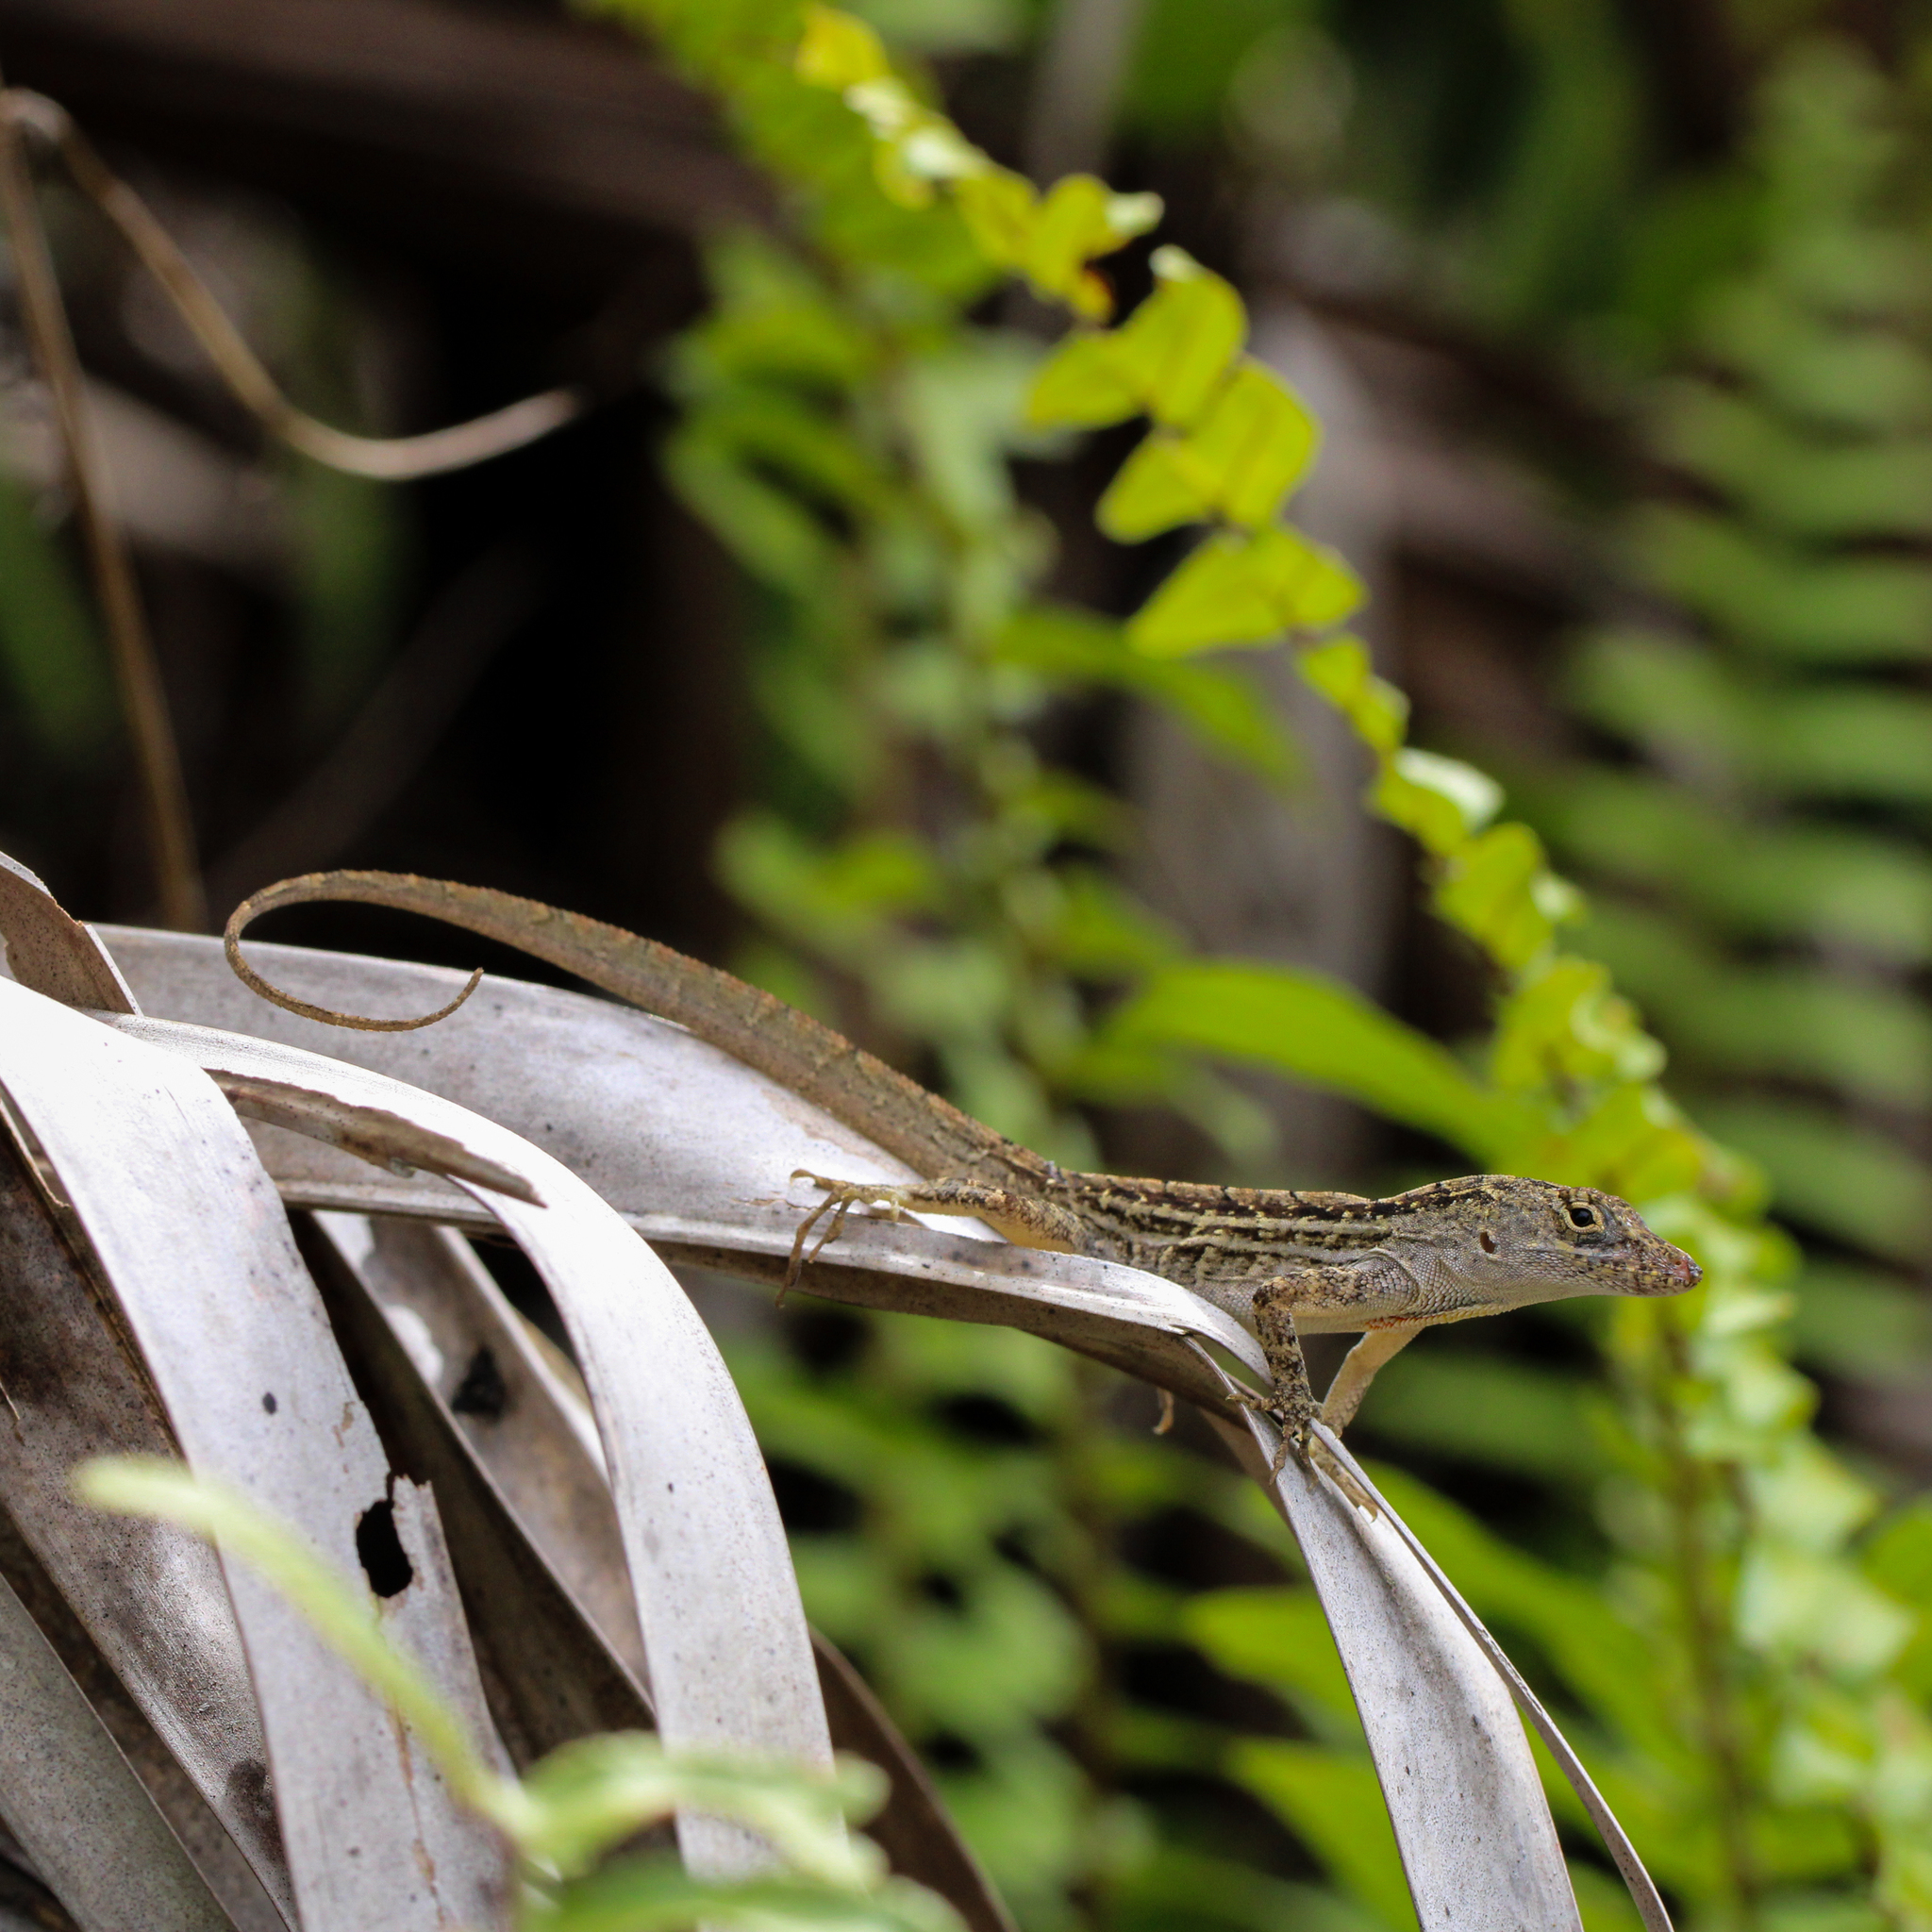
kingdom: Animalia
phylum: Chordata
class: Squamata
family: Dactyloidae
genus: Anolis
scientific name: Anolis sagrei
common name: Brown anole
